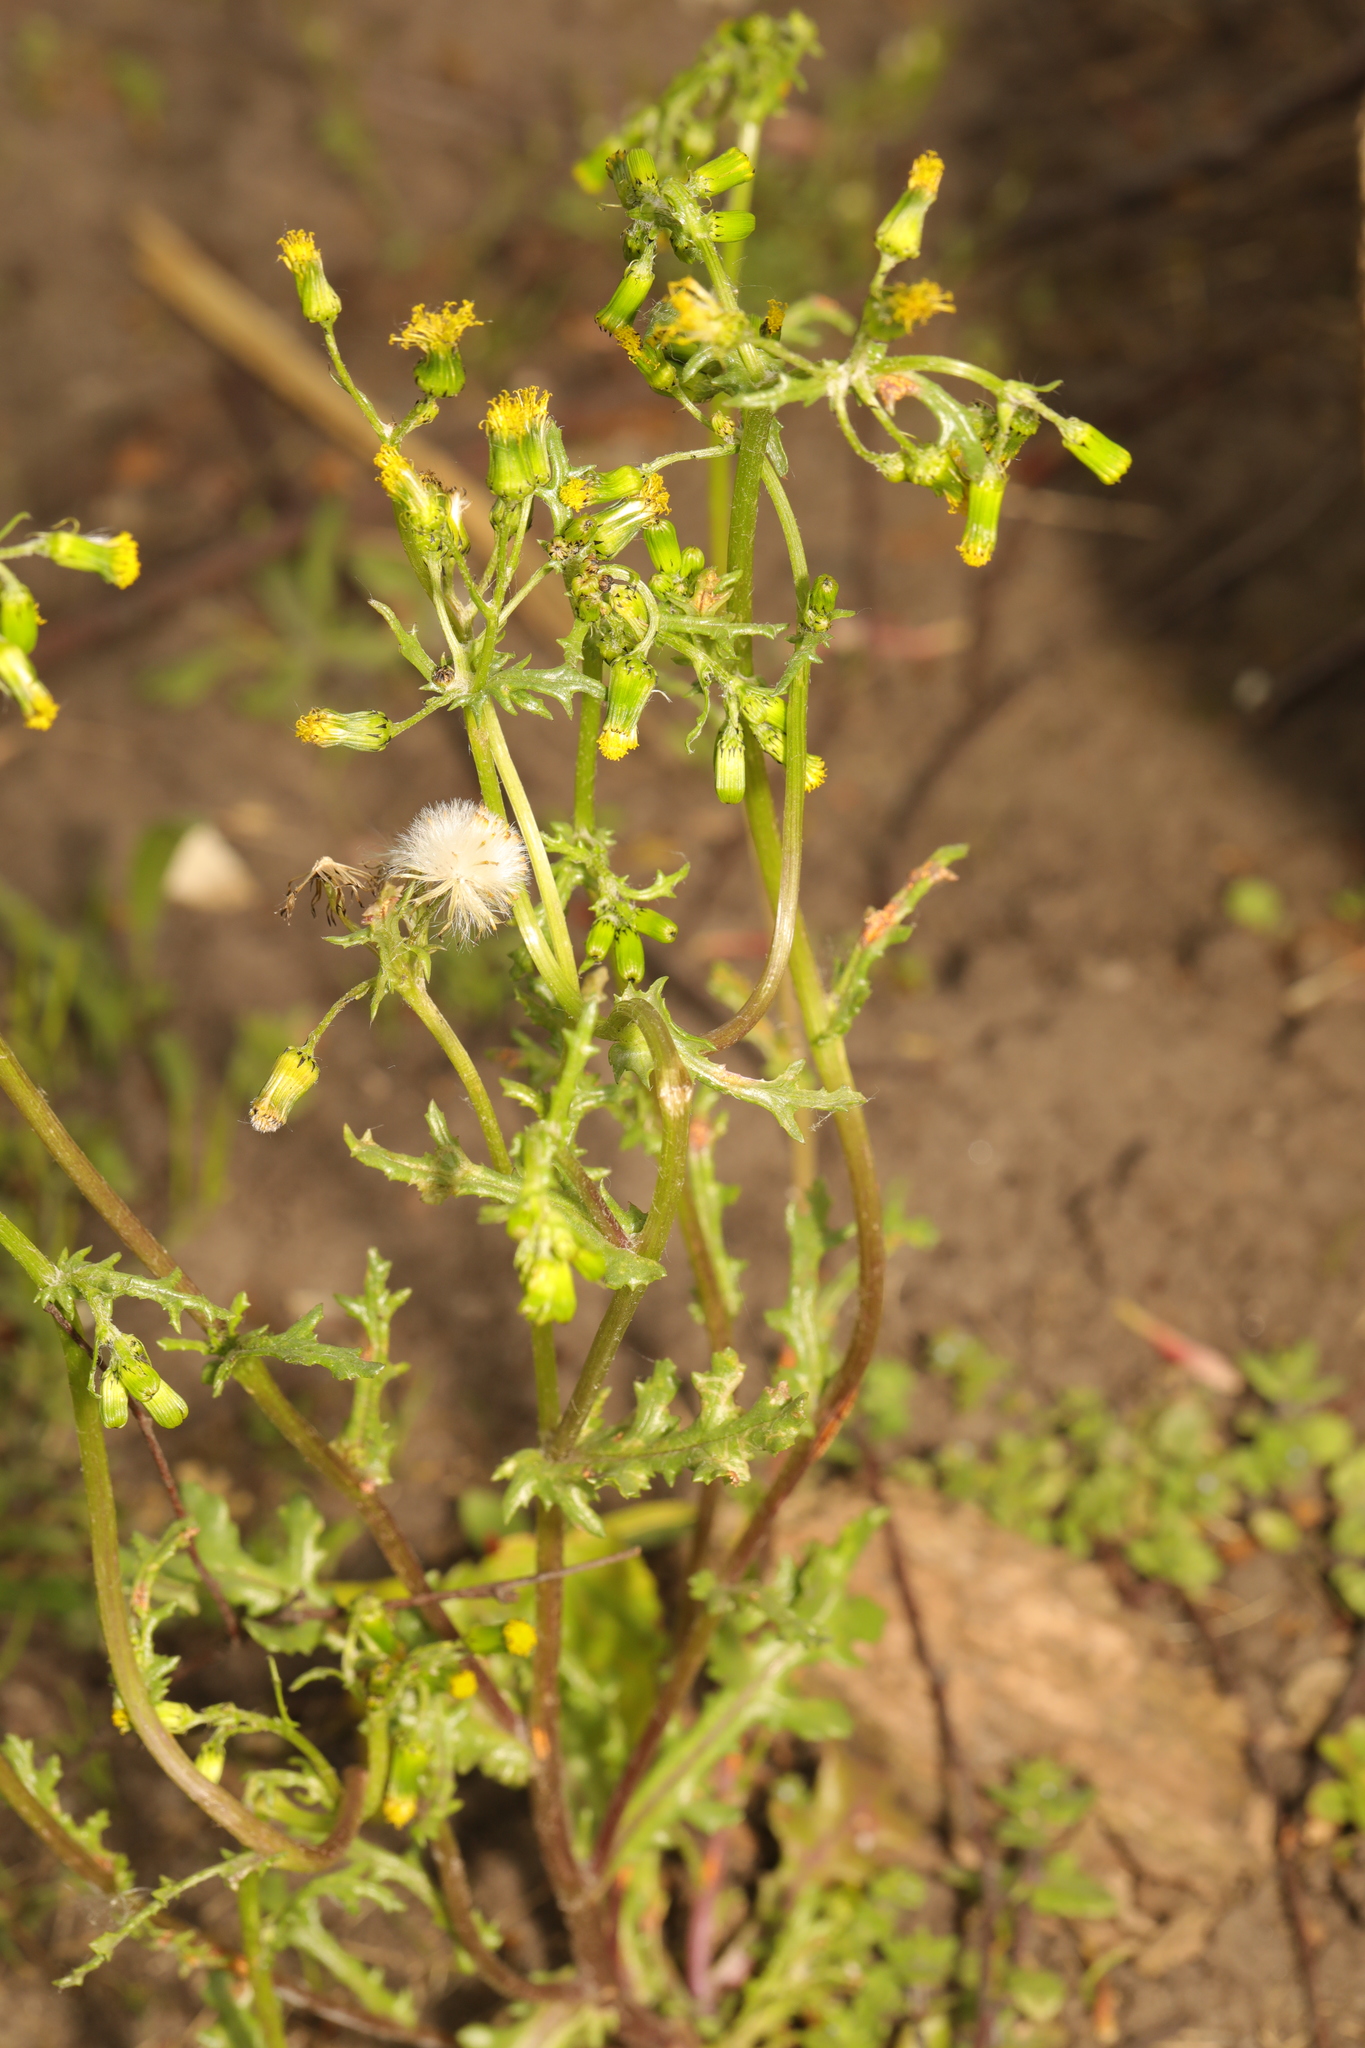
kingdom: Plantae
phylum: Tracheophyta
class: Magnoliopsida
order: Asterales
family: Asteraceae
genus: Senecio
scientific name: Senecio vulgaris
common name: Old-man-in-the-spring
